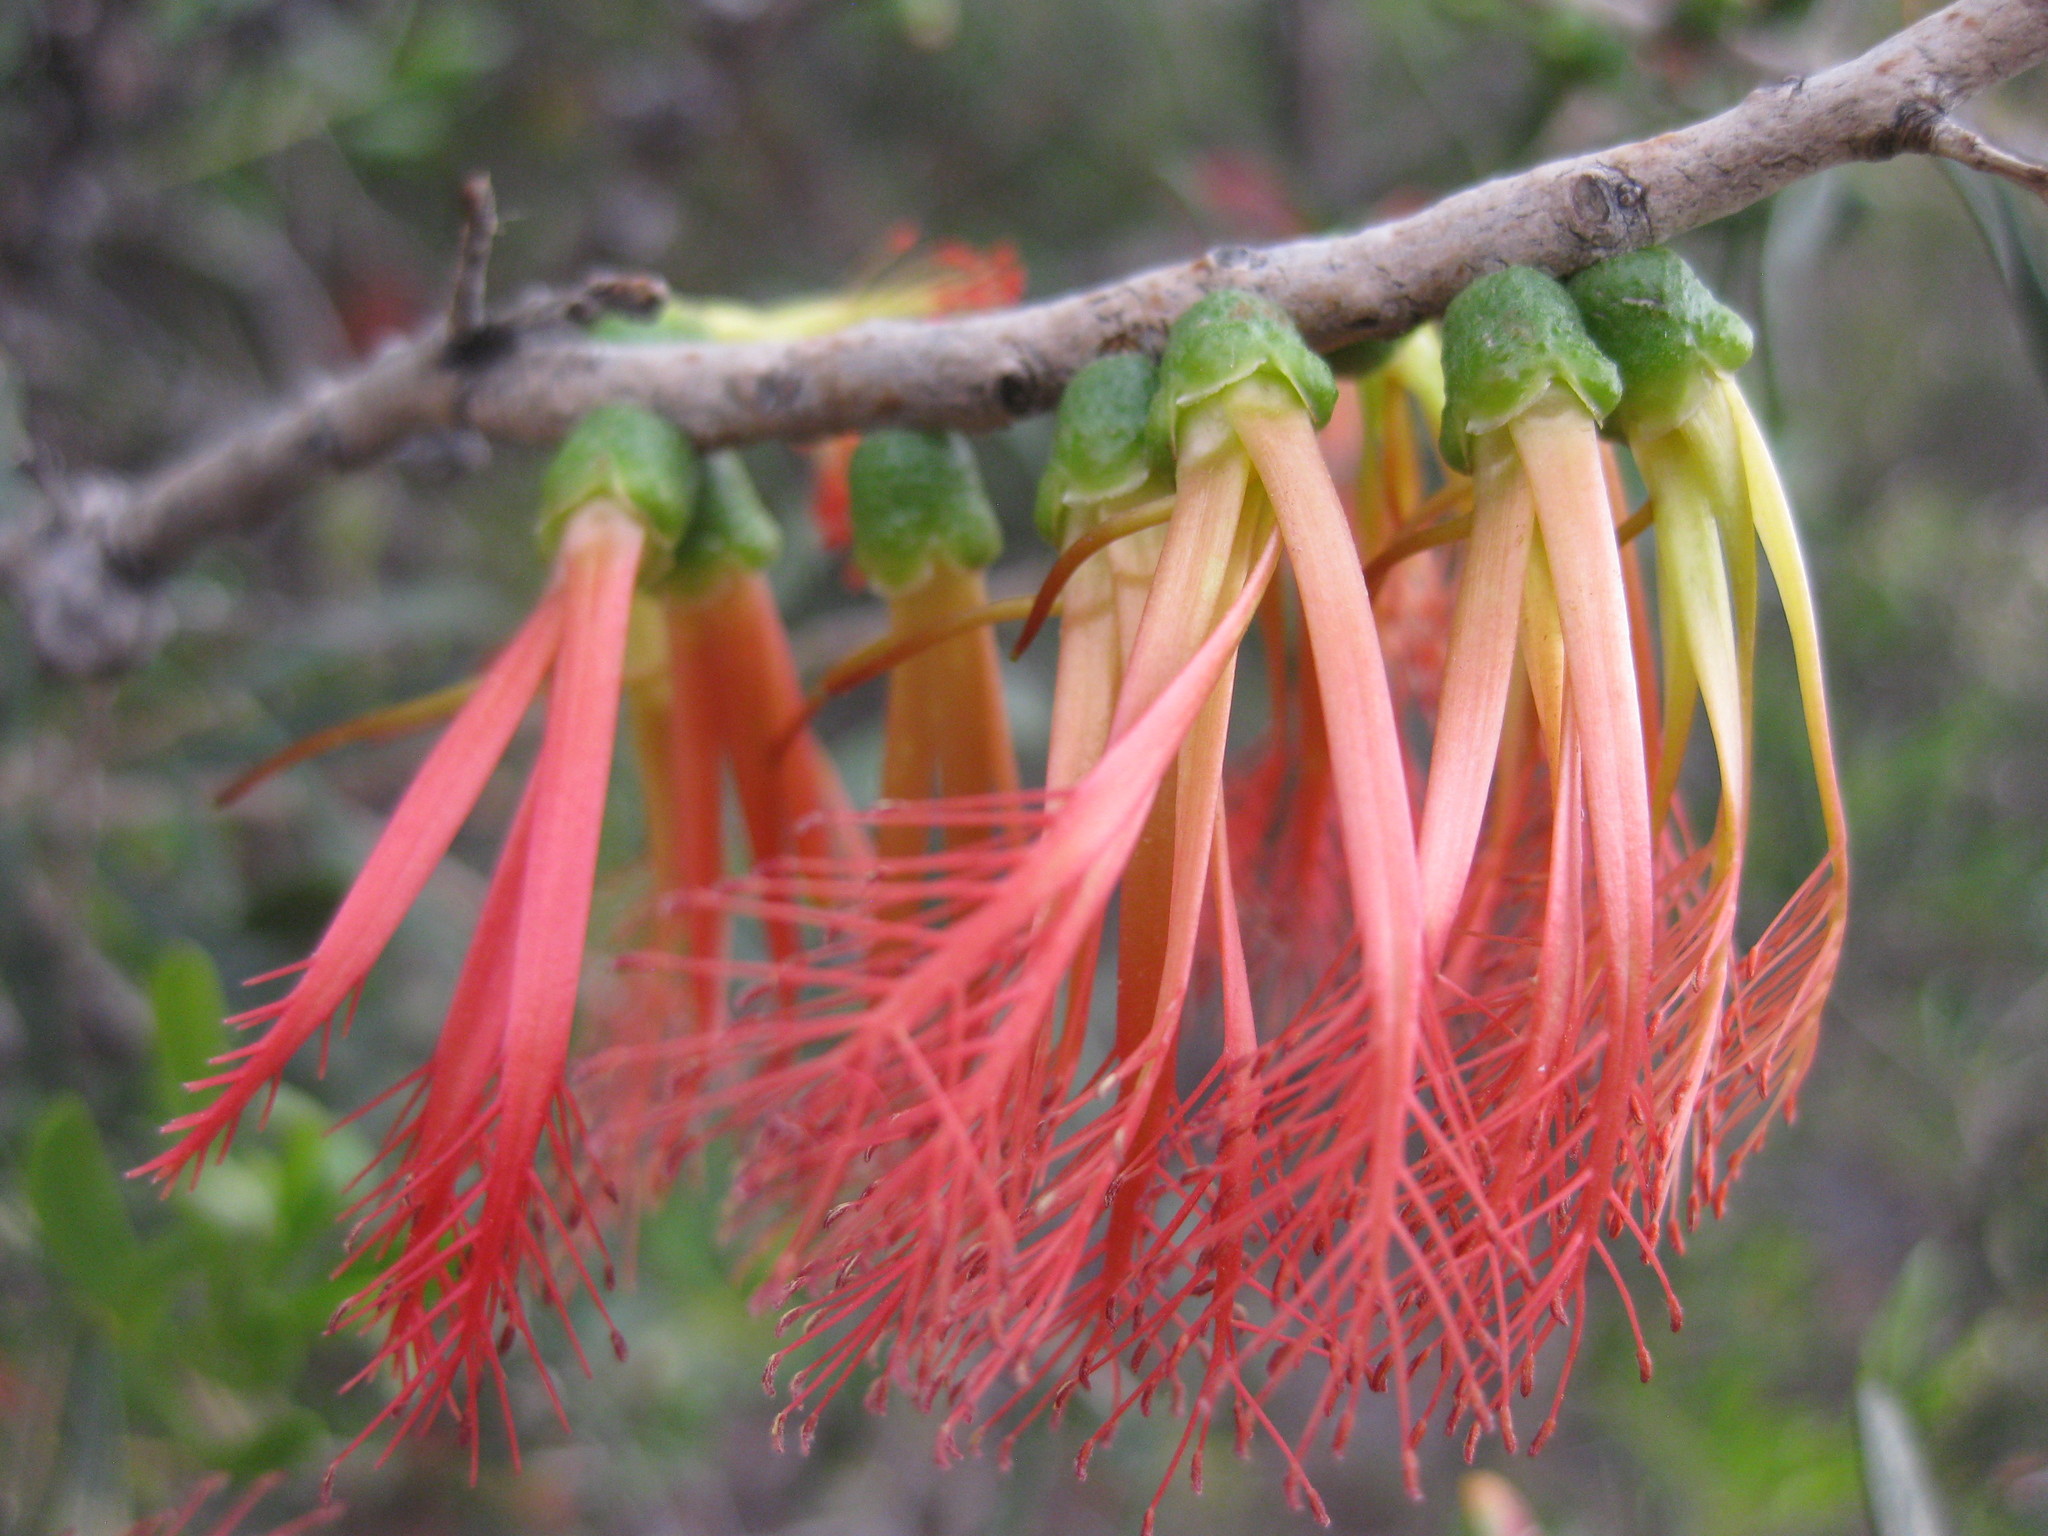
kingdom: Plantae
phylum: Tracheophyta
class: Magnoliopsida
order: Myrtales
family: Myrtaceae
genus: Melaleuca
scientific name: Melaleuca quadrifida
